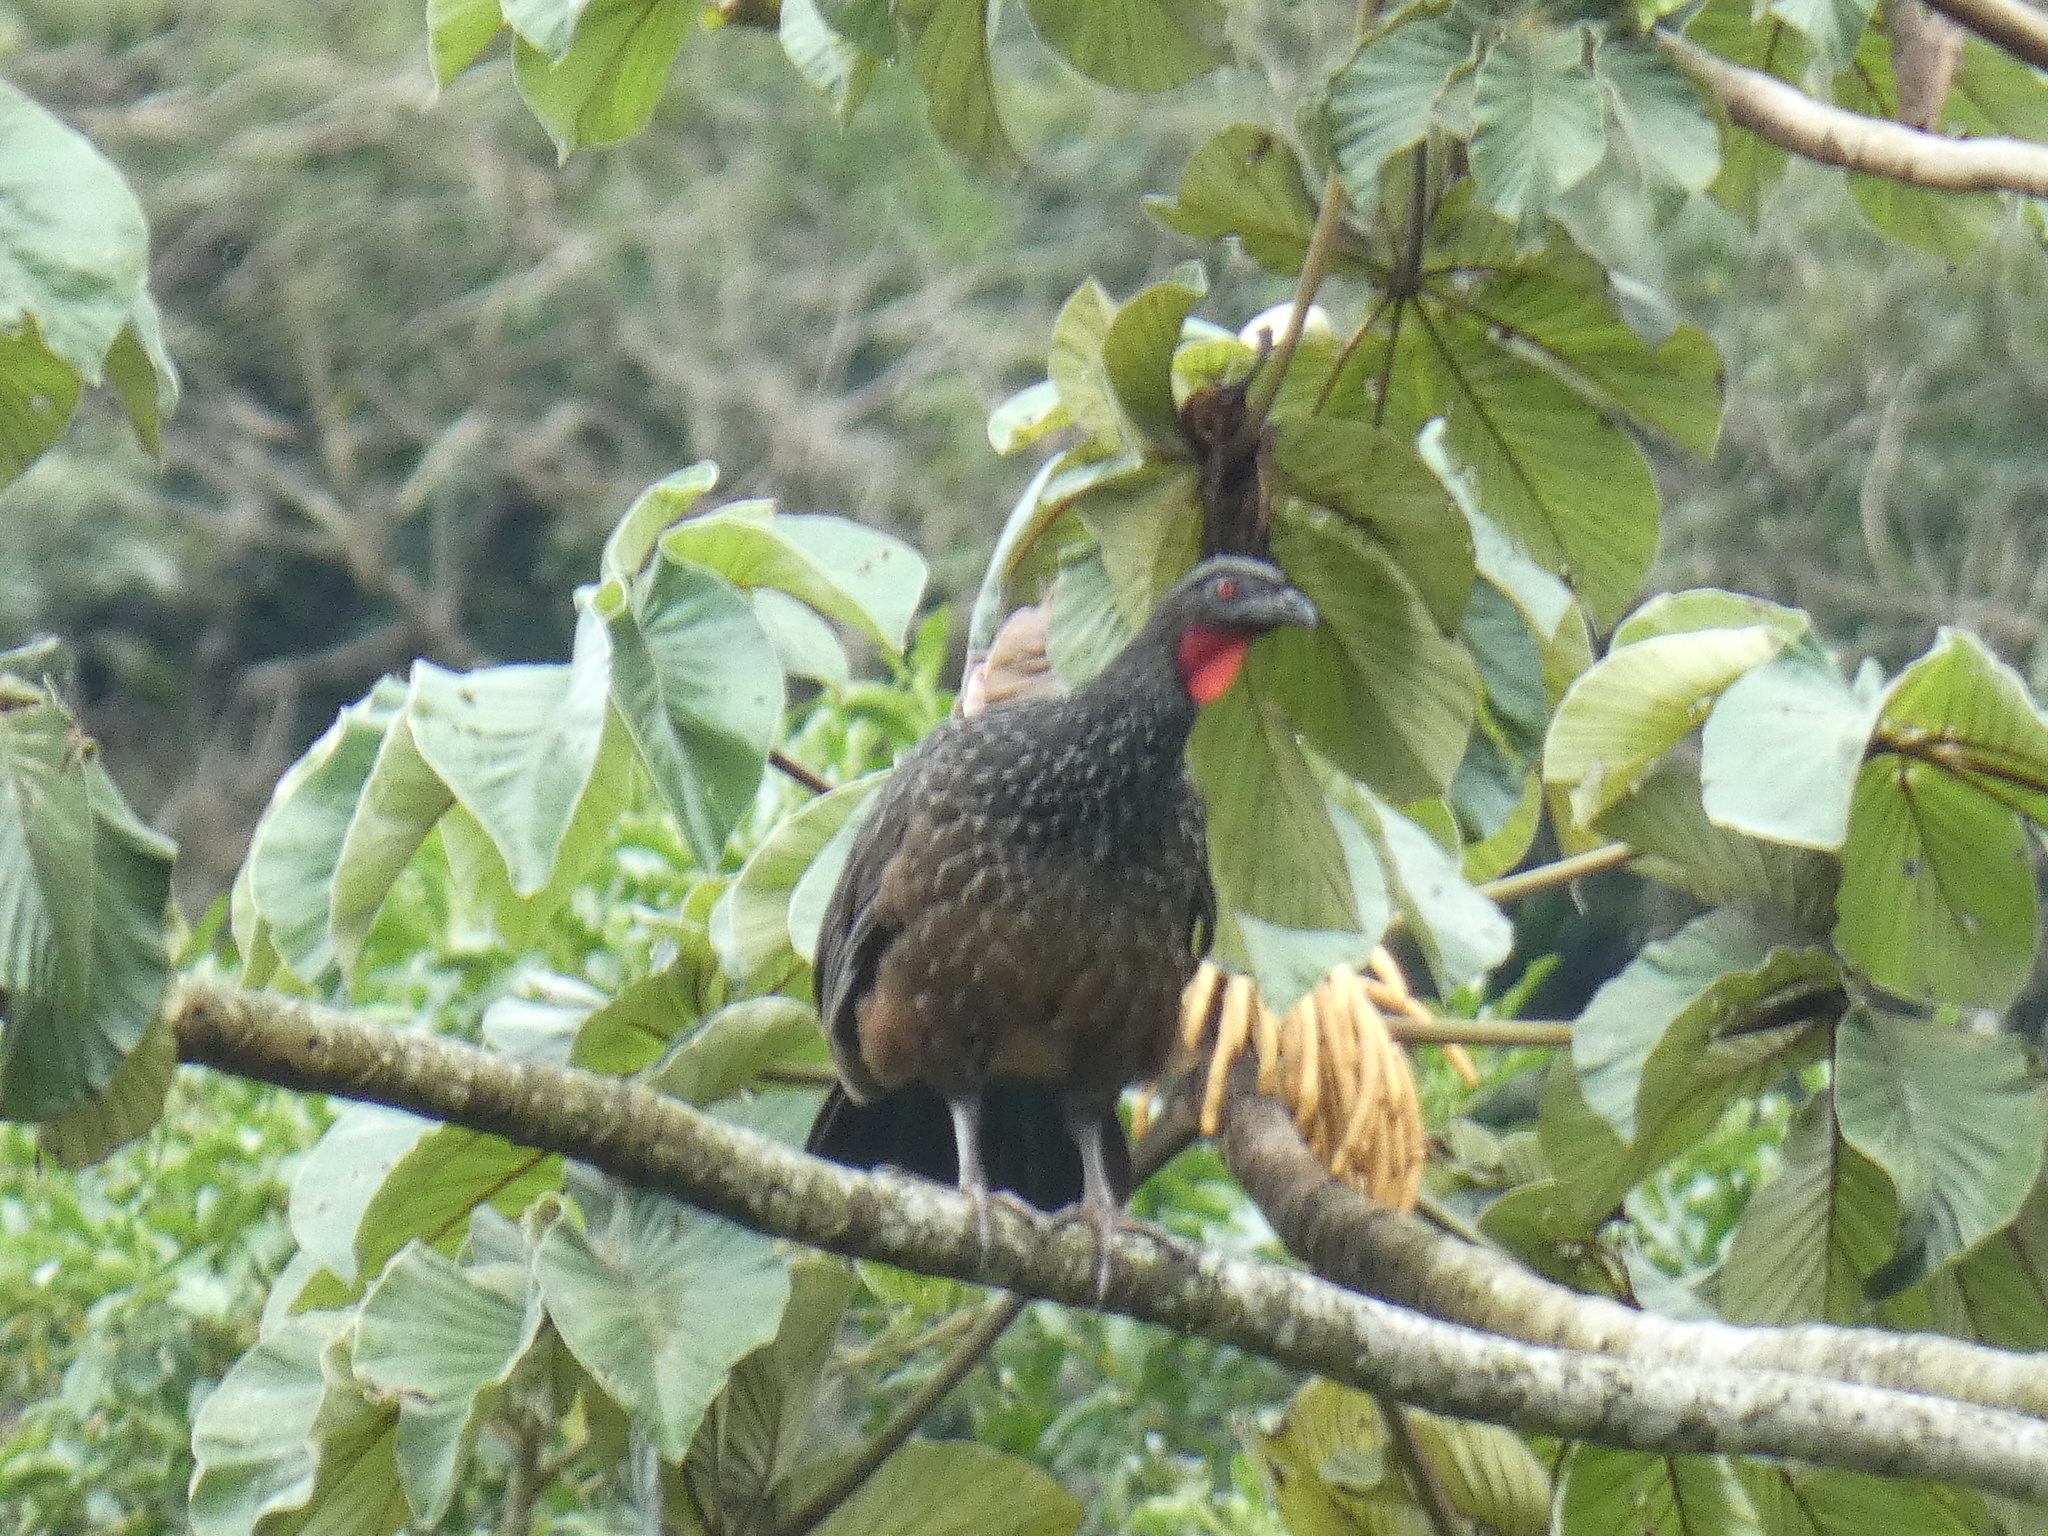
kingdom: Animalia
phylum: Chordata
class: Aves
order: Galliformes
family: Cracidae
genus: Penelope
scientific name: Penelope obscura
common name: Dusky-legged guan
